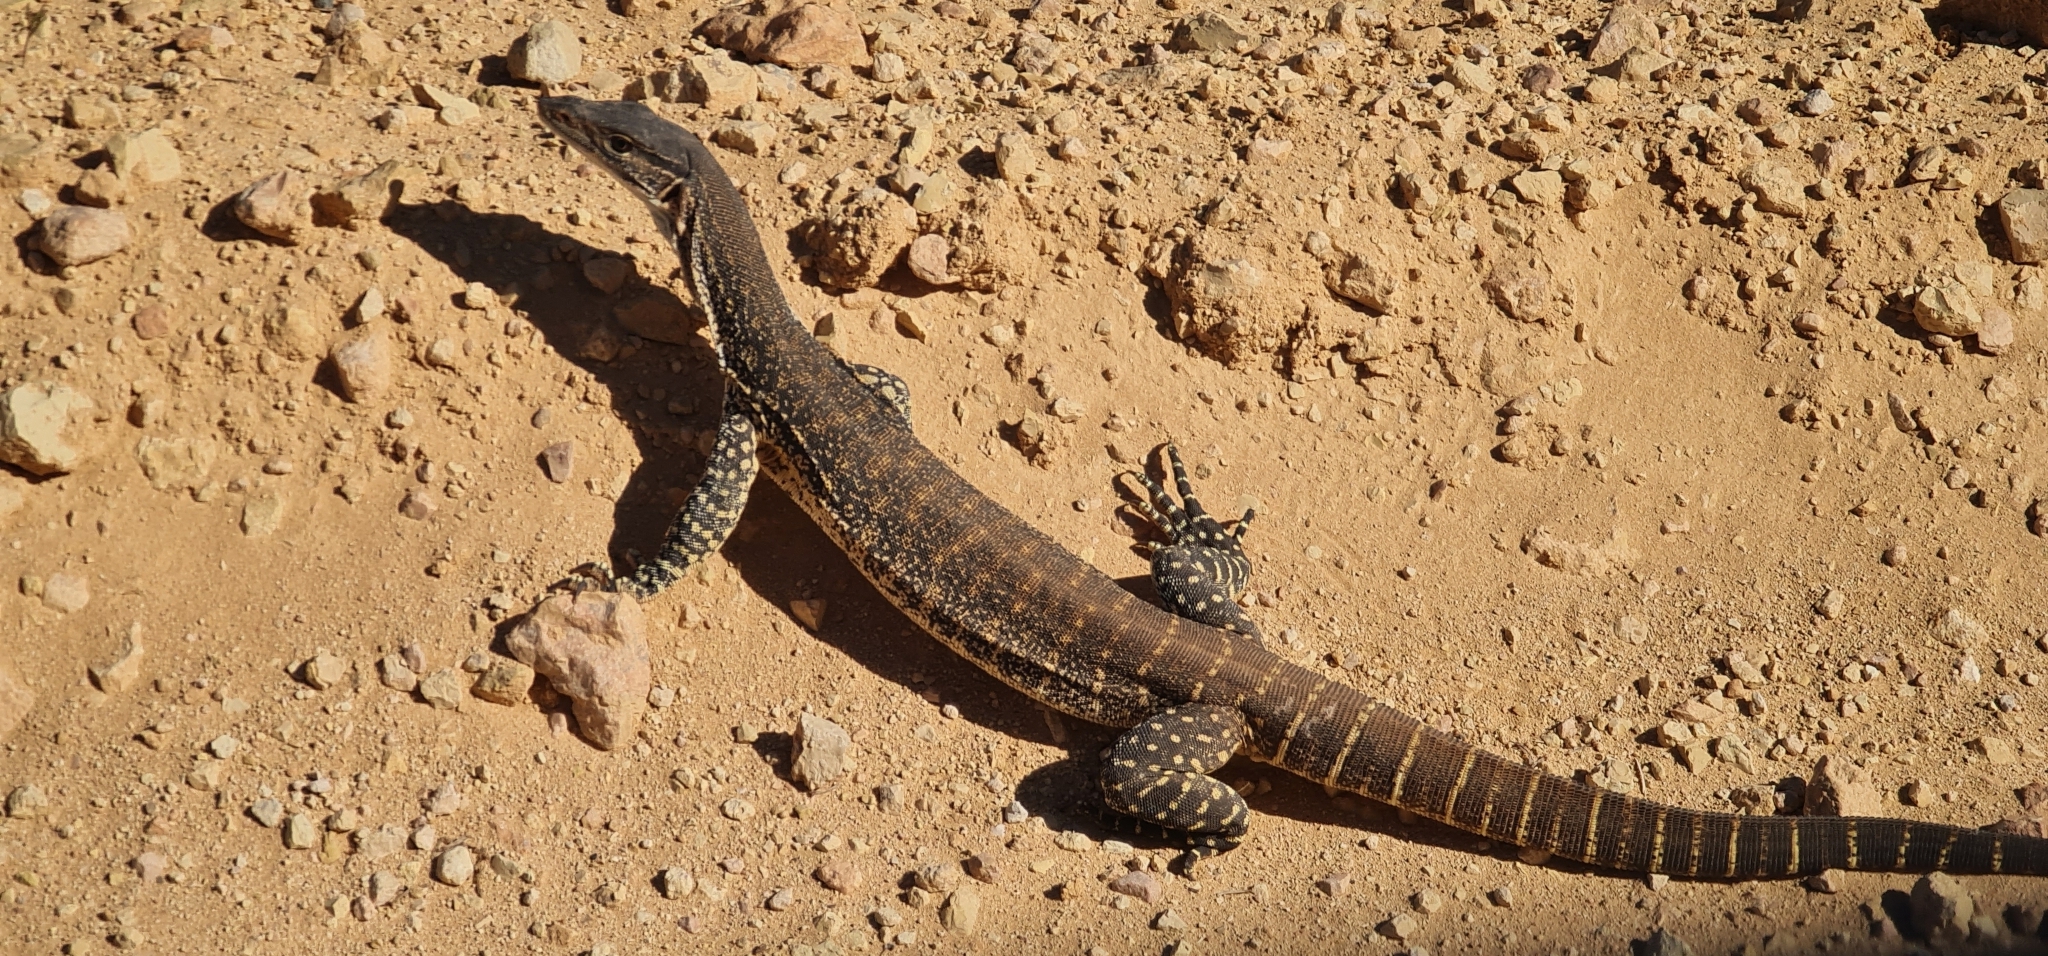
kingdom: Animalia
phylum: Chordata
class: Squamata
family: Varanidae
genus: Varanus
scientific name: Varanus gouldii
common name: Gould's goanna
